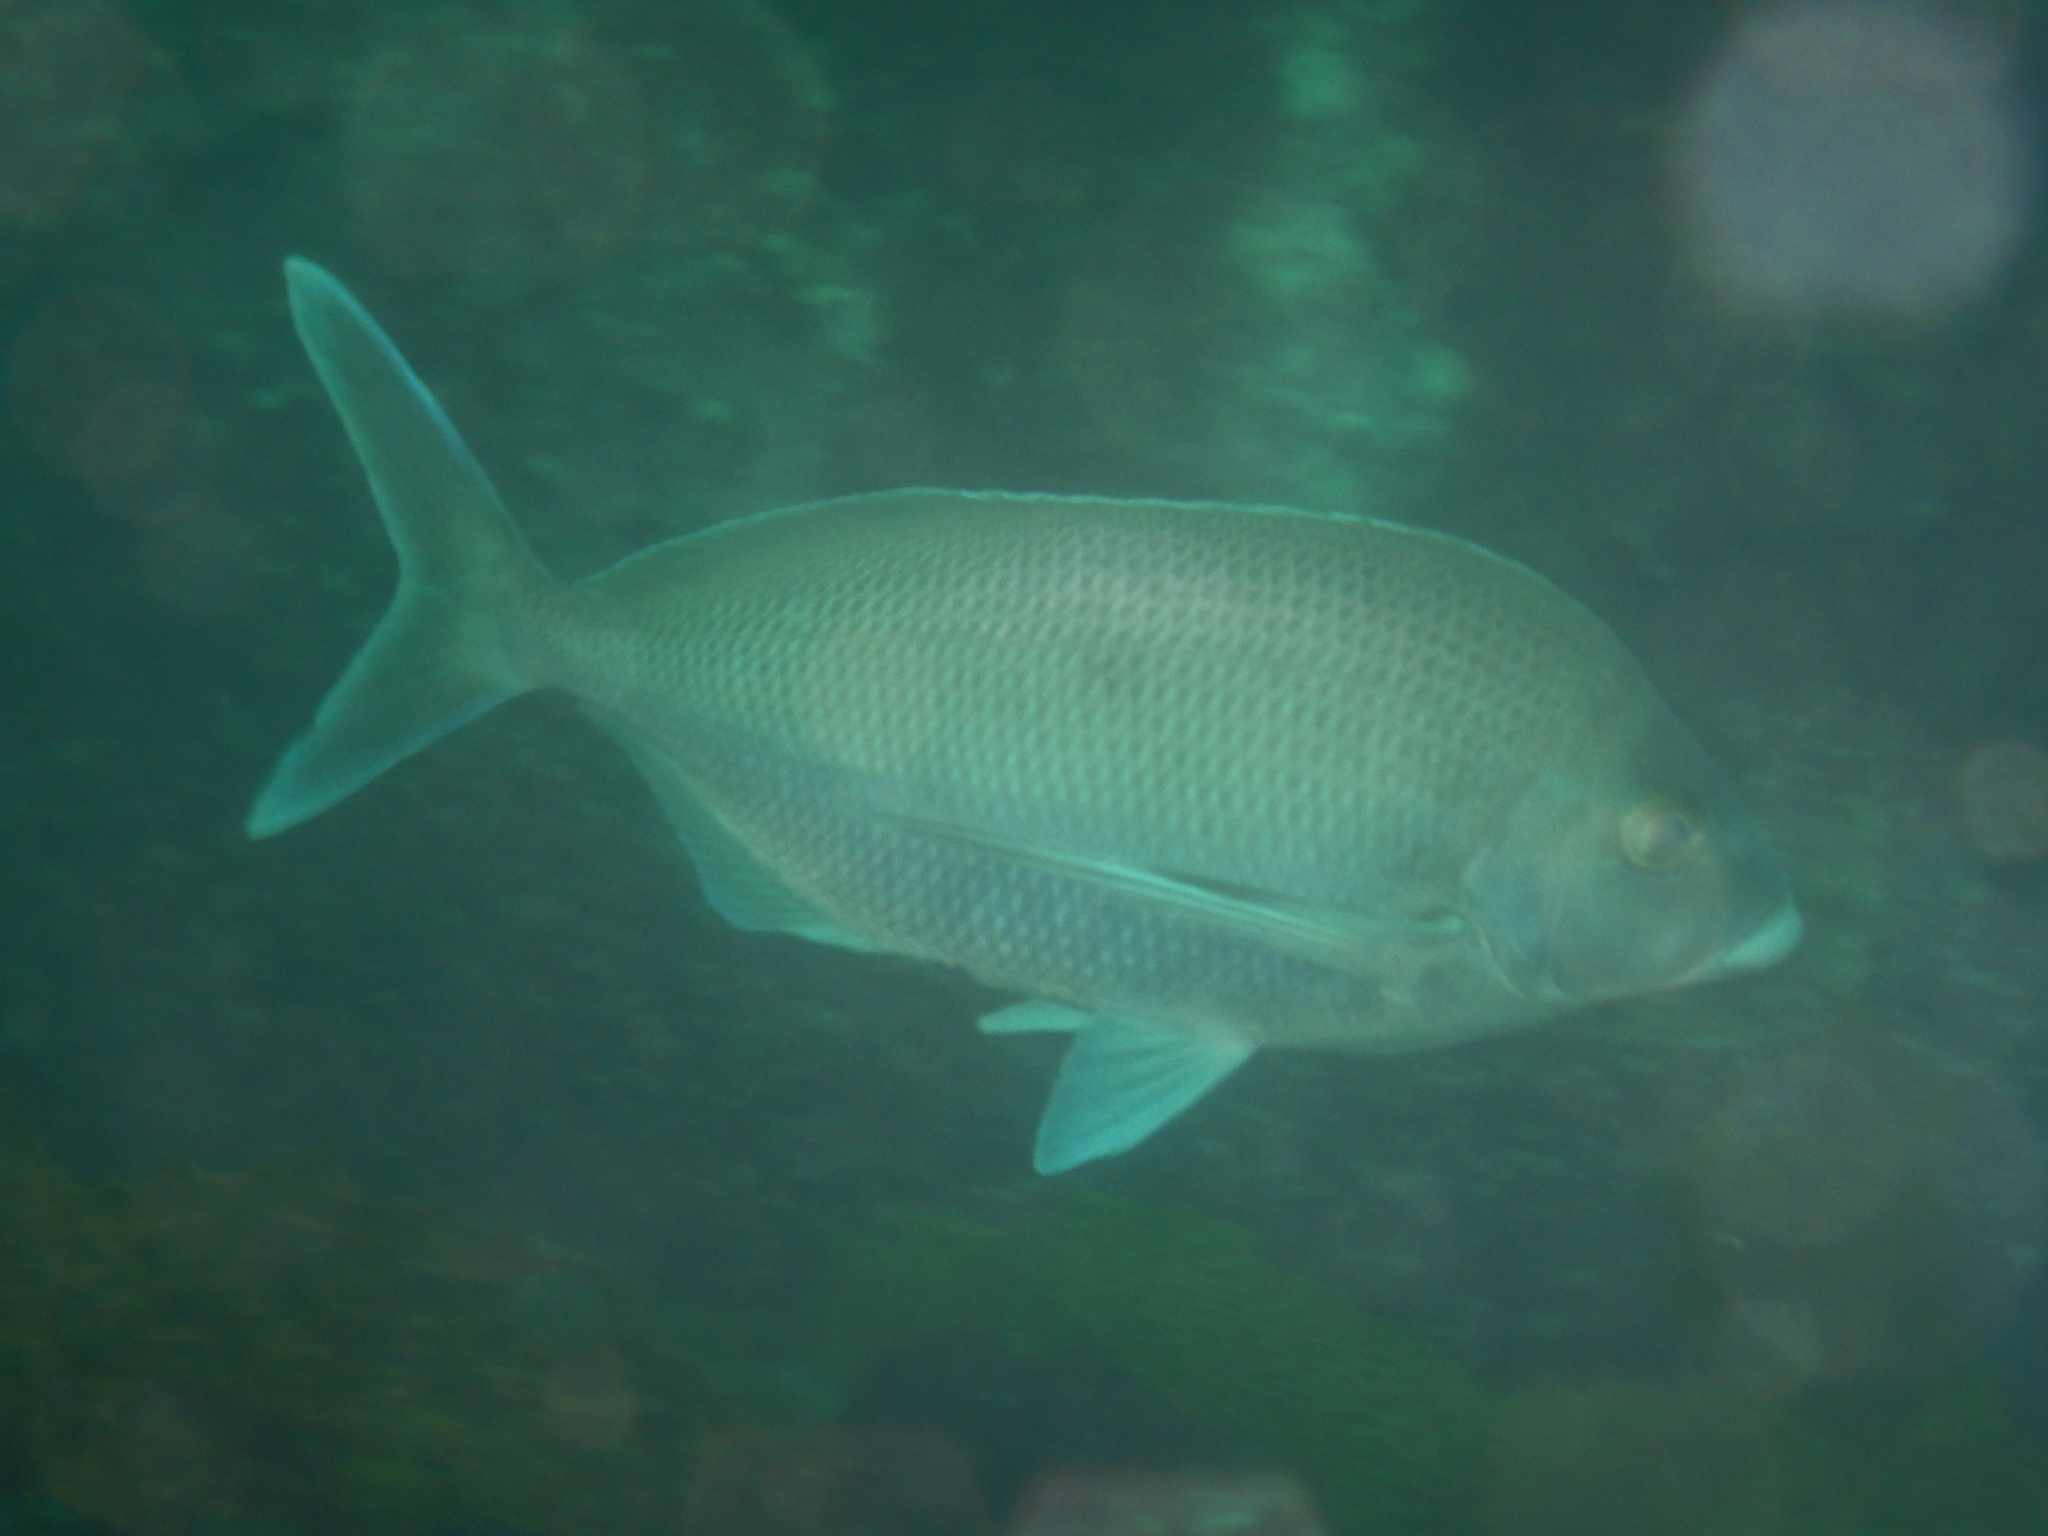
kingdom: Animalia
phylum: Chordata
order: Perciformes
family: Cheilodactylidae
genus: Nemadactylus
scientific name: Nemadactylus douglasii
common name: Porae
